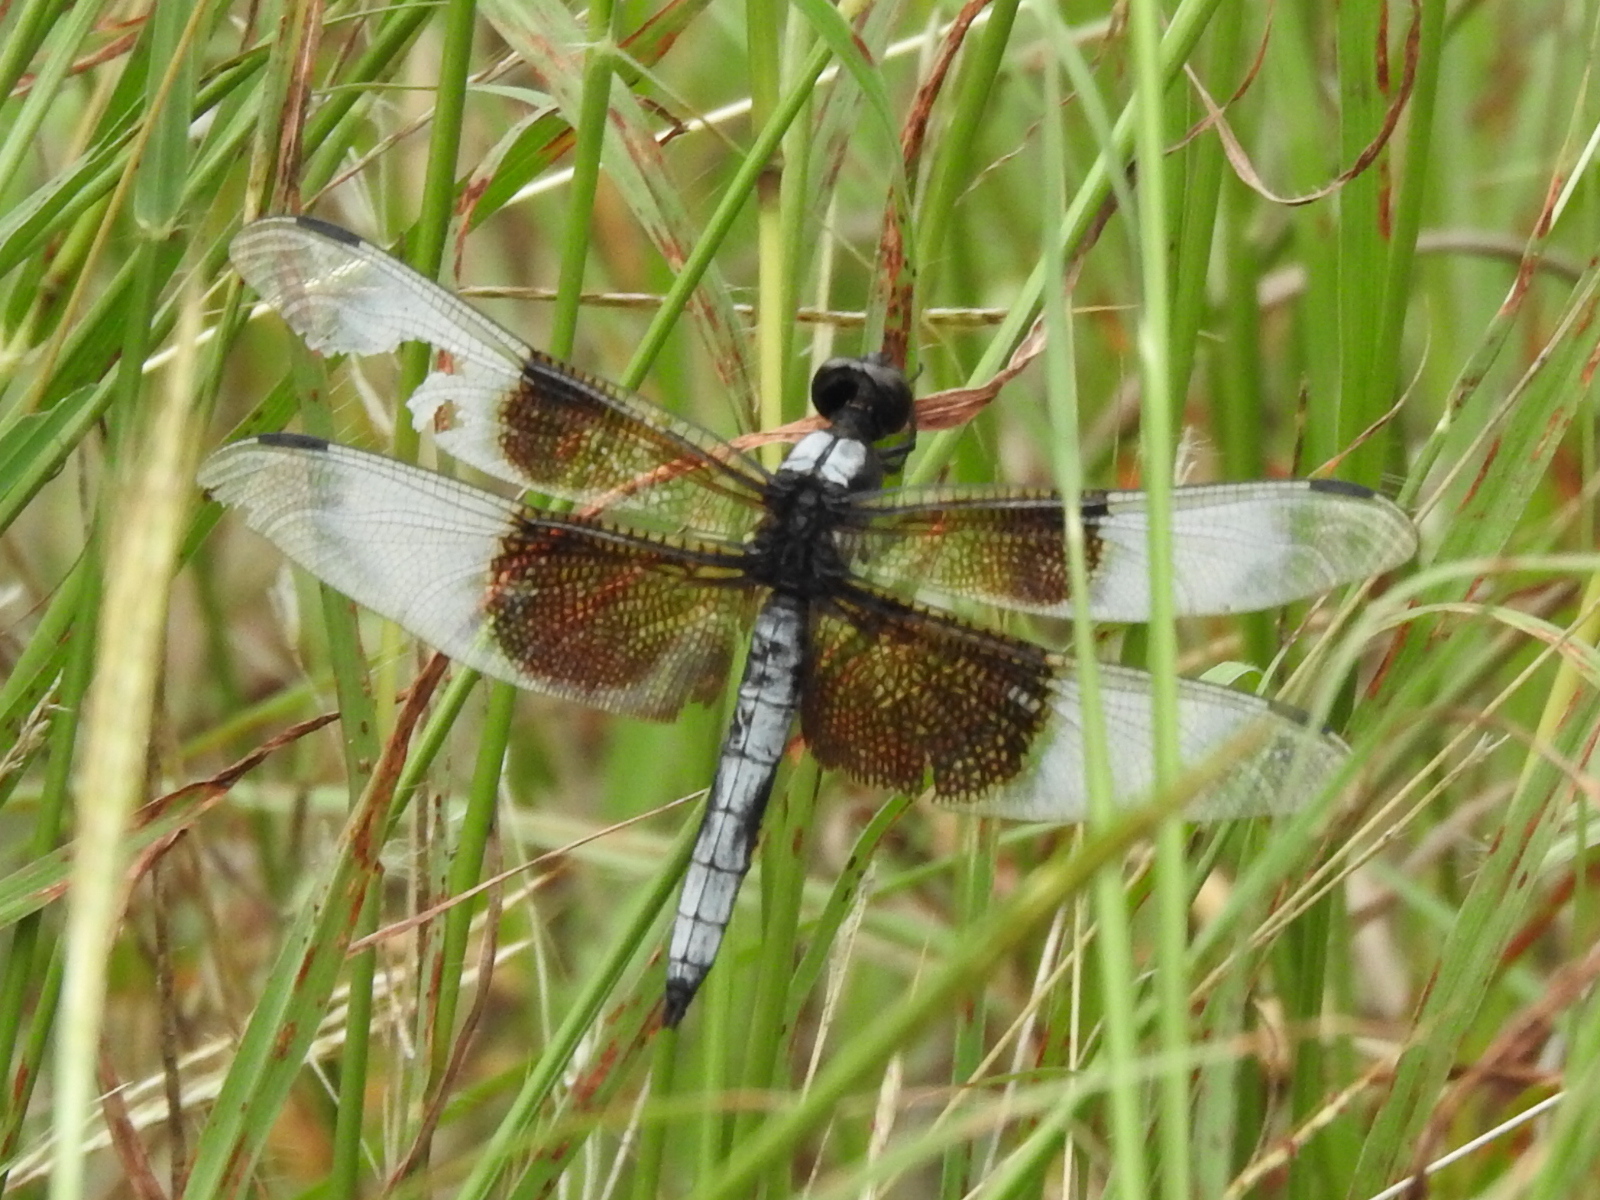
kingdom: Animalia
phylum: Arthropoda
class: Insecta
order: Odonata
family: Libellulidae
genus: Libellula
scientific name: Libellula luctuosa
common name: Widow skimmer
